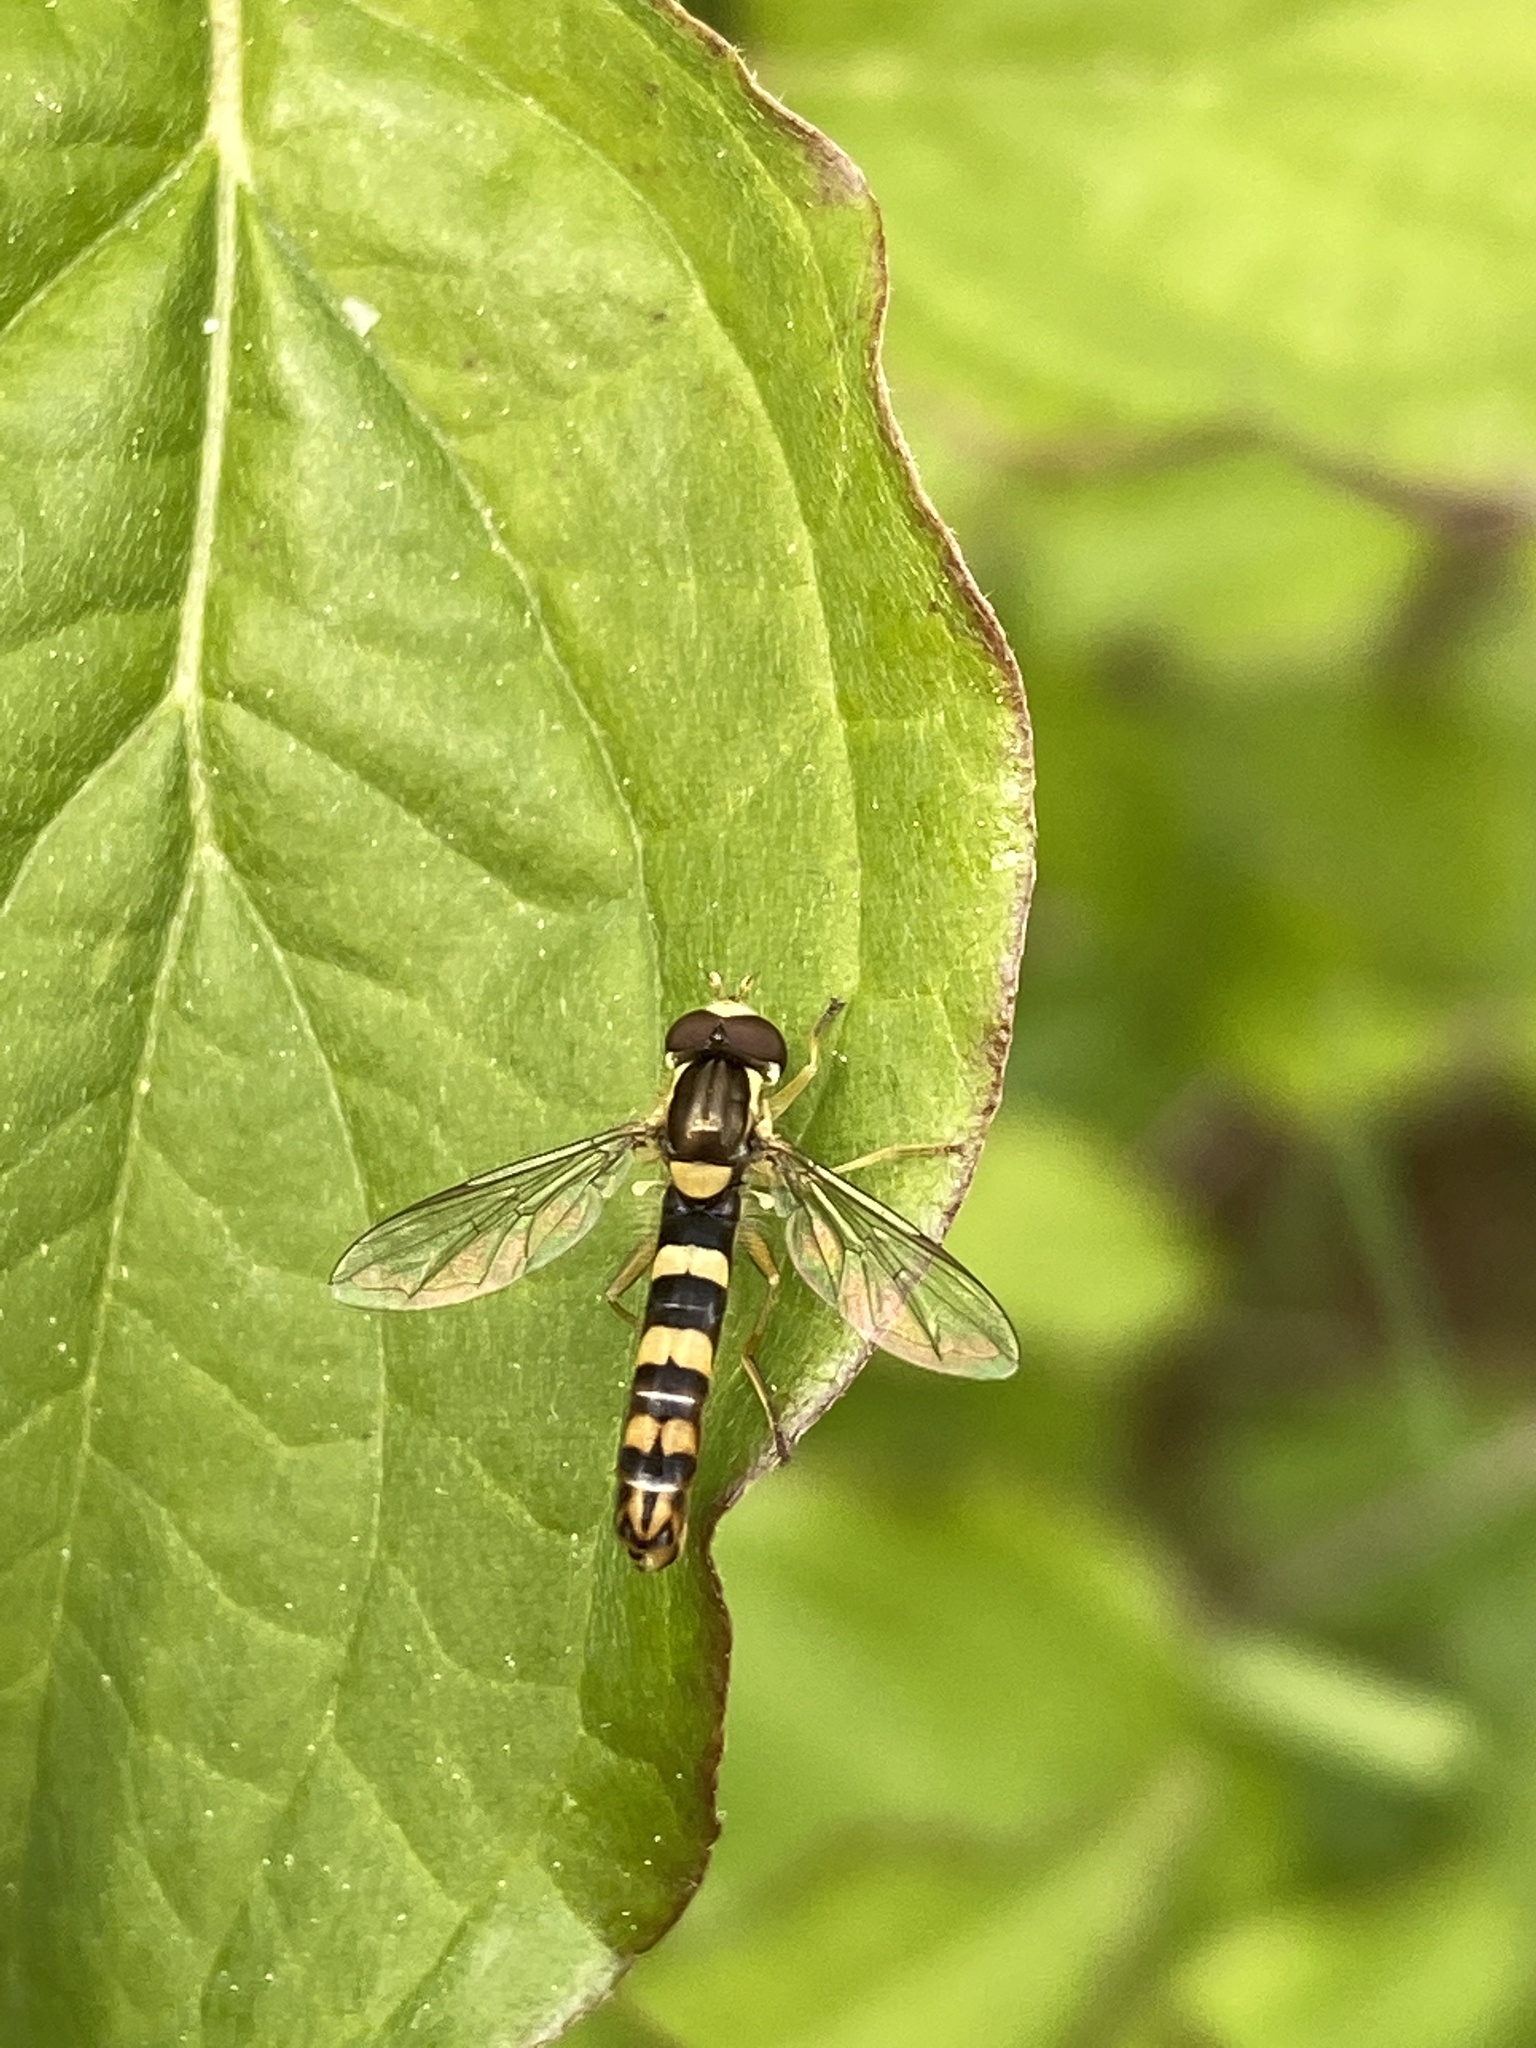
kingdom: Animalia
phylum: Arthropoda
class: Insecta
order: Diptera
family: Syrphidae
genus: Sphaerophoria
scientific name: Sphaerophoria scripta
